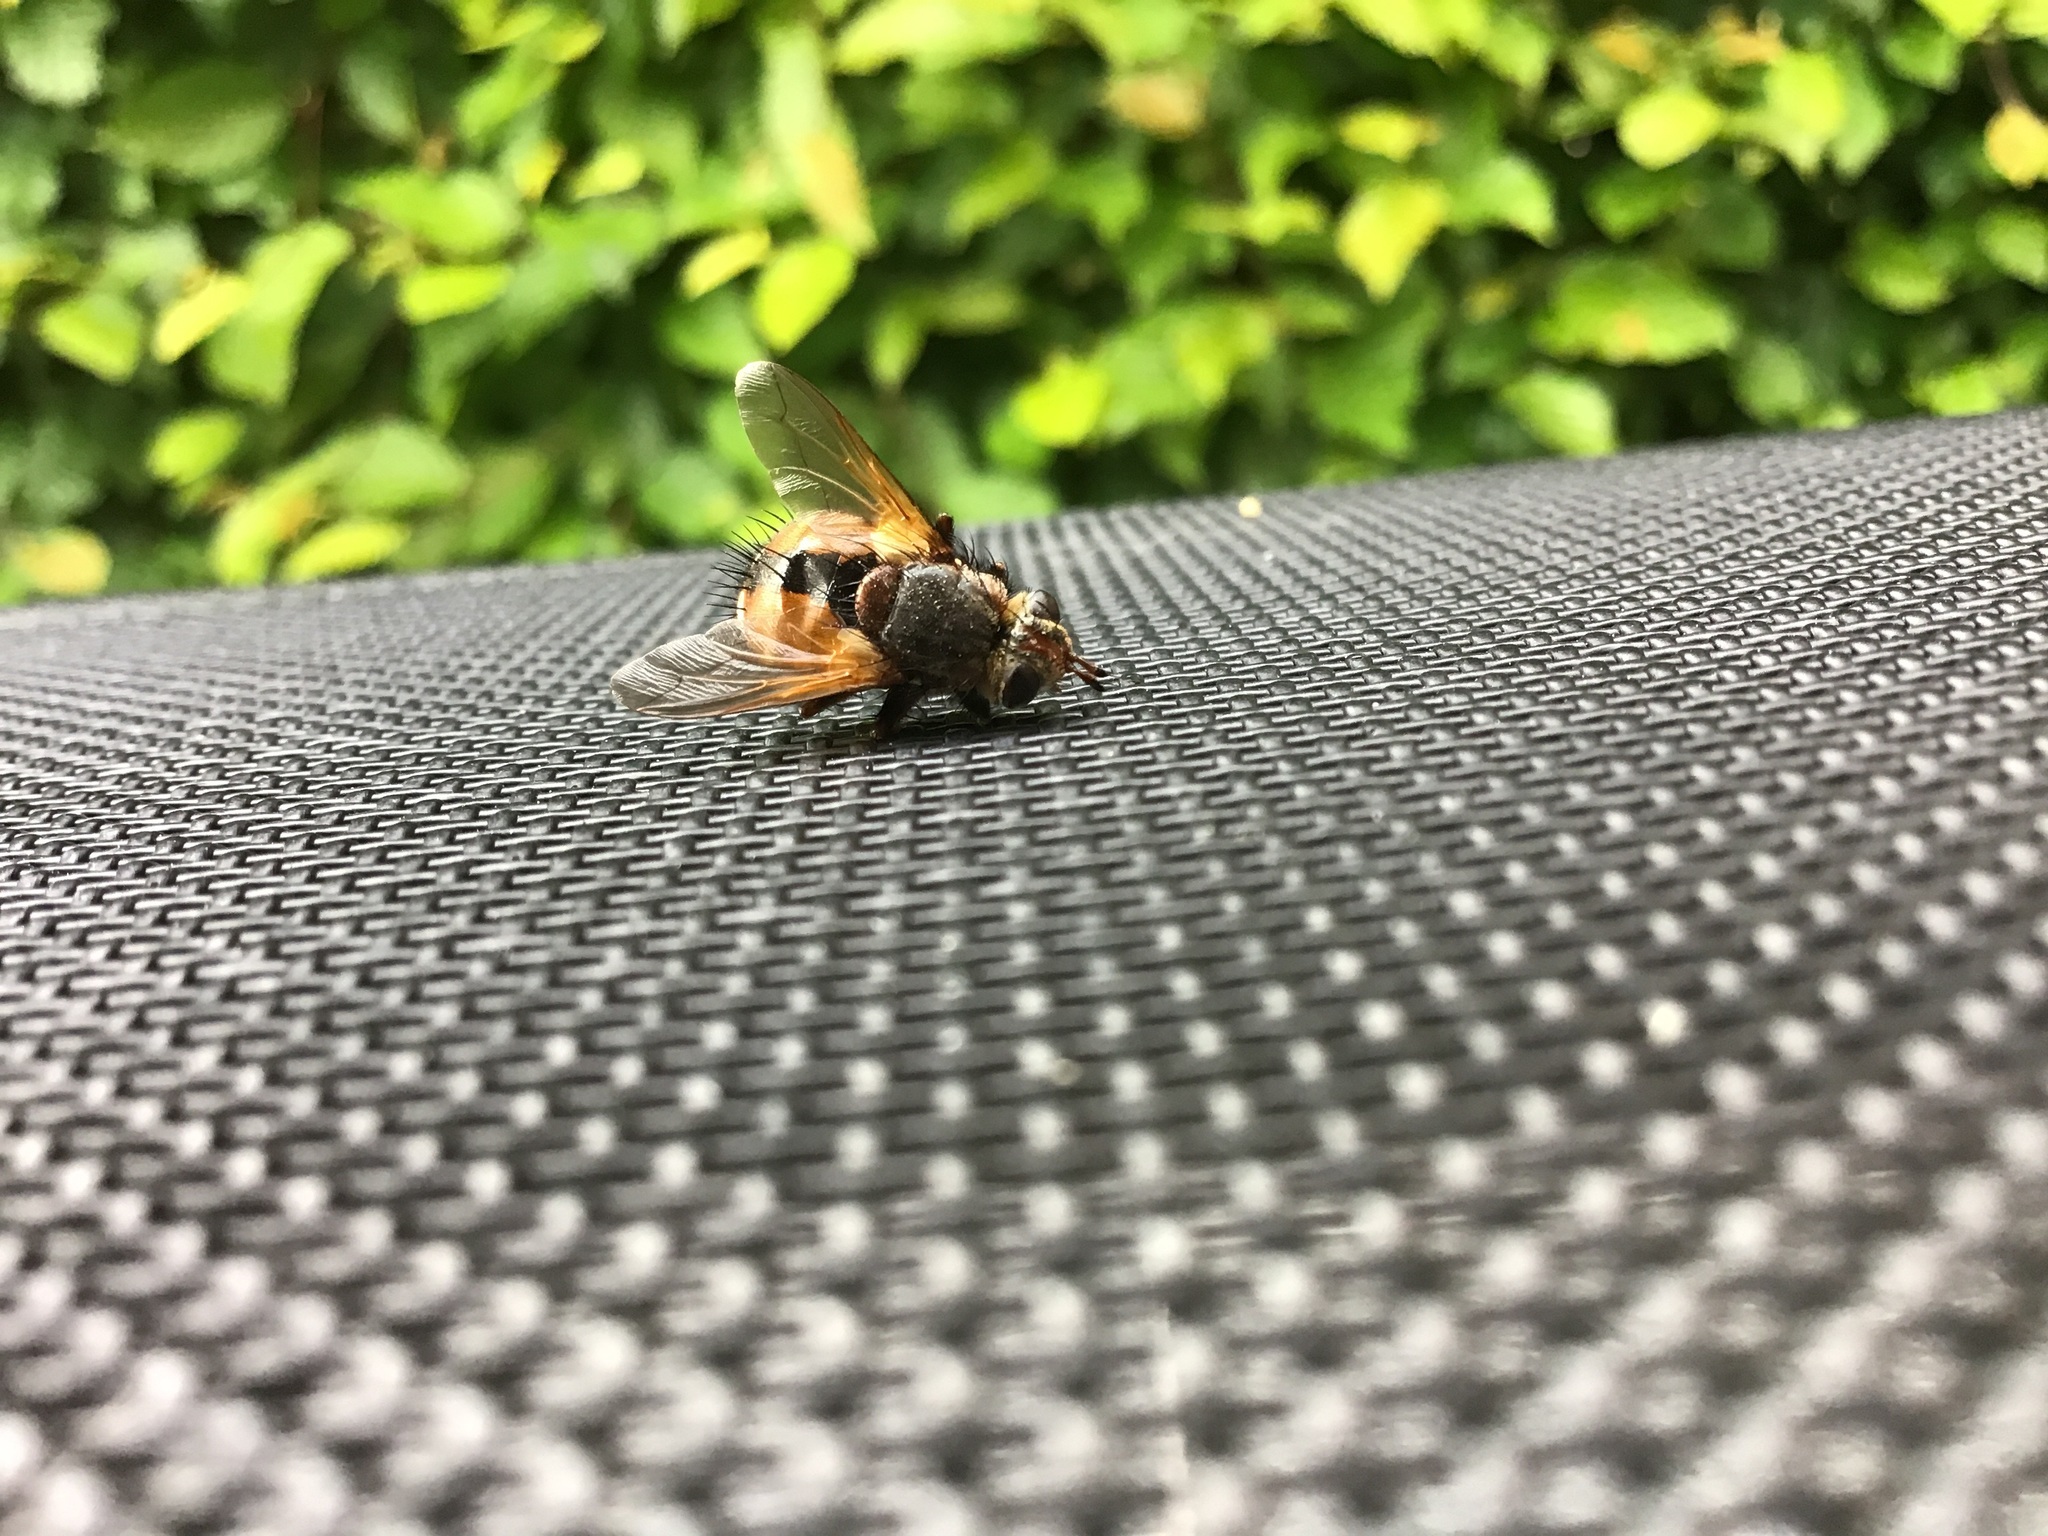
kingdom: Animalia
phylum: Arthropoda
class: Insecta
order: Diptera
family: Tachinidae
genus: Tachina
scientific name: Tachina fera
